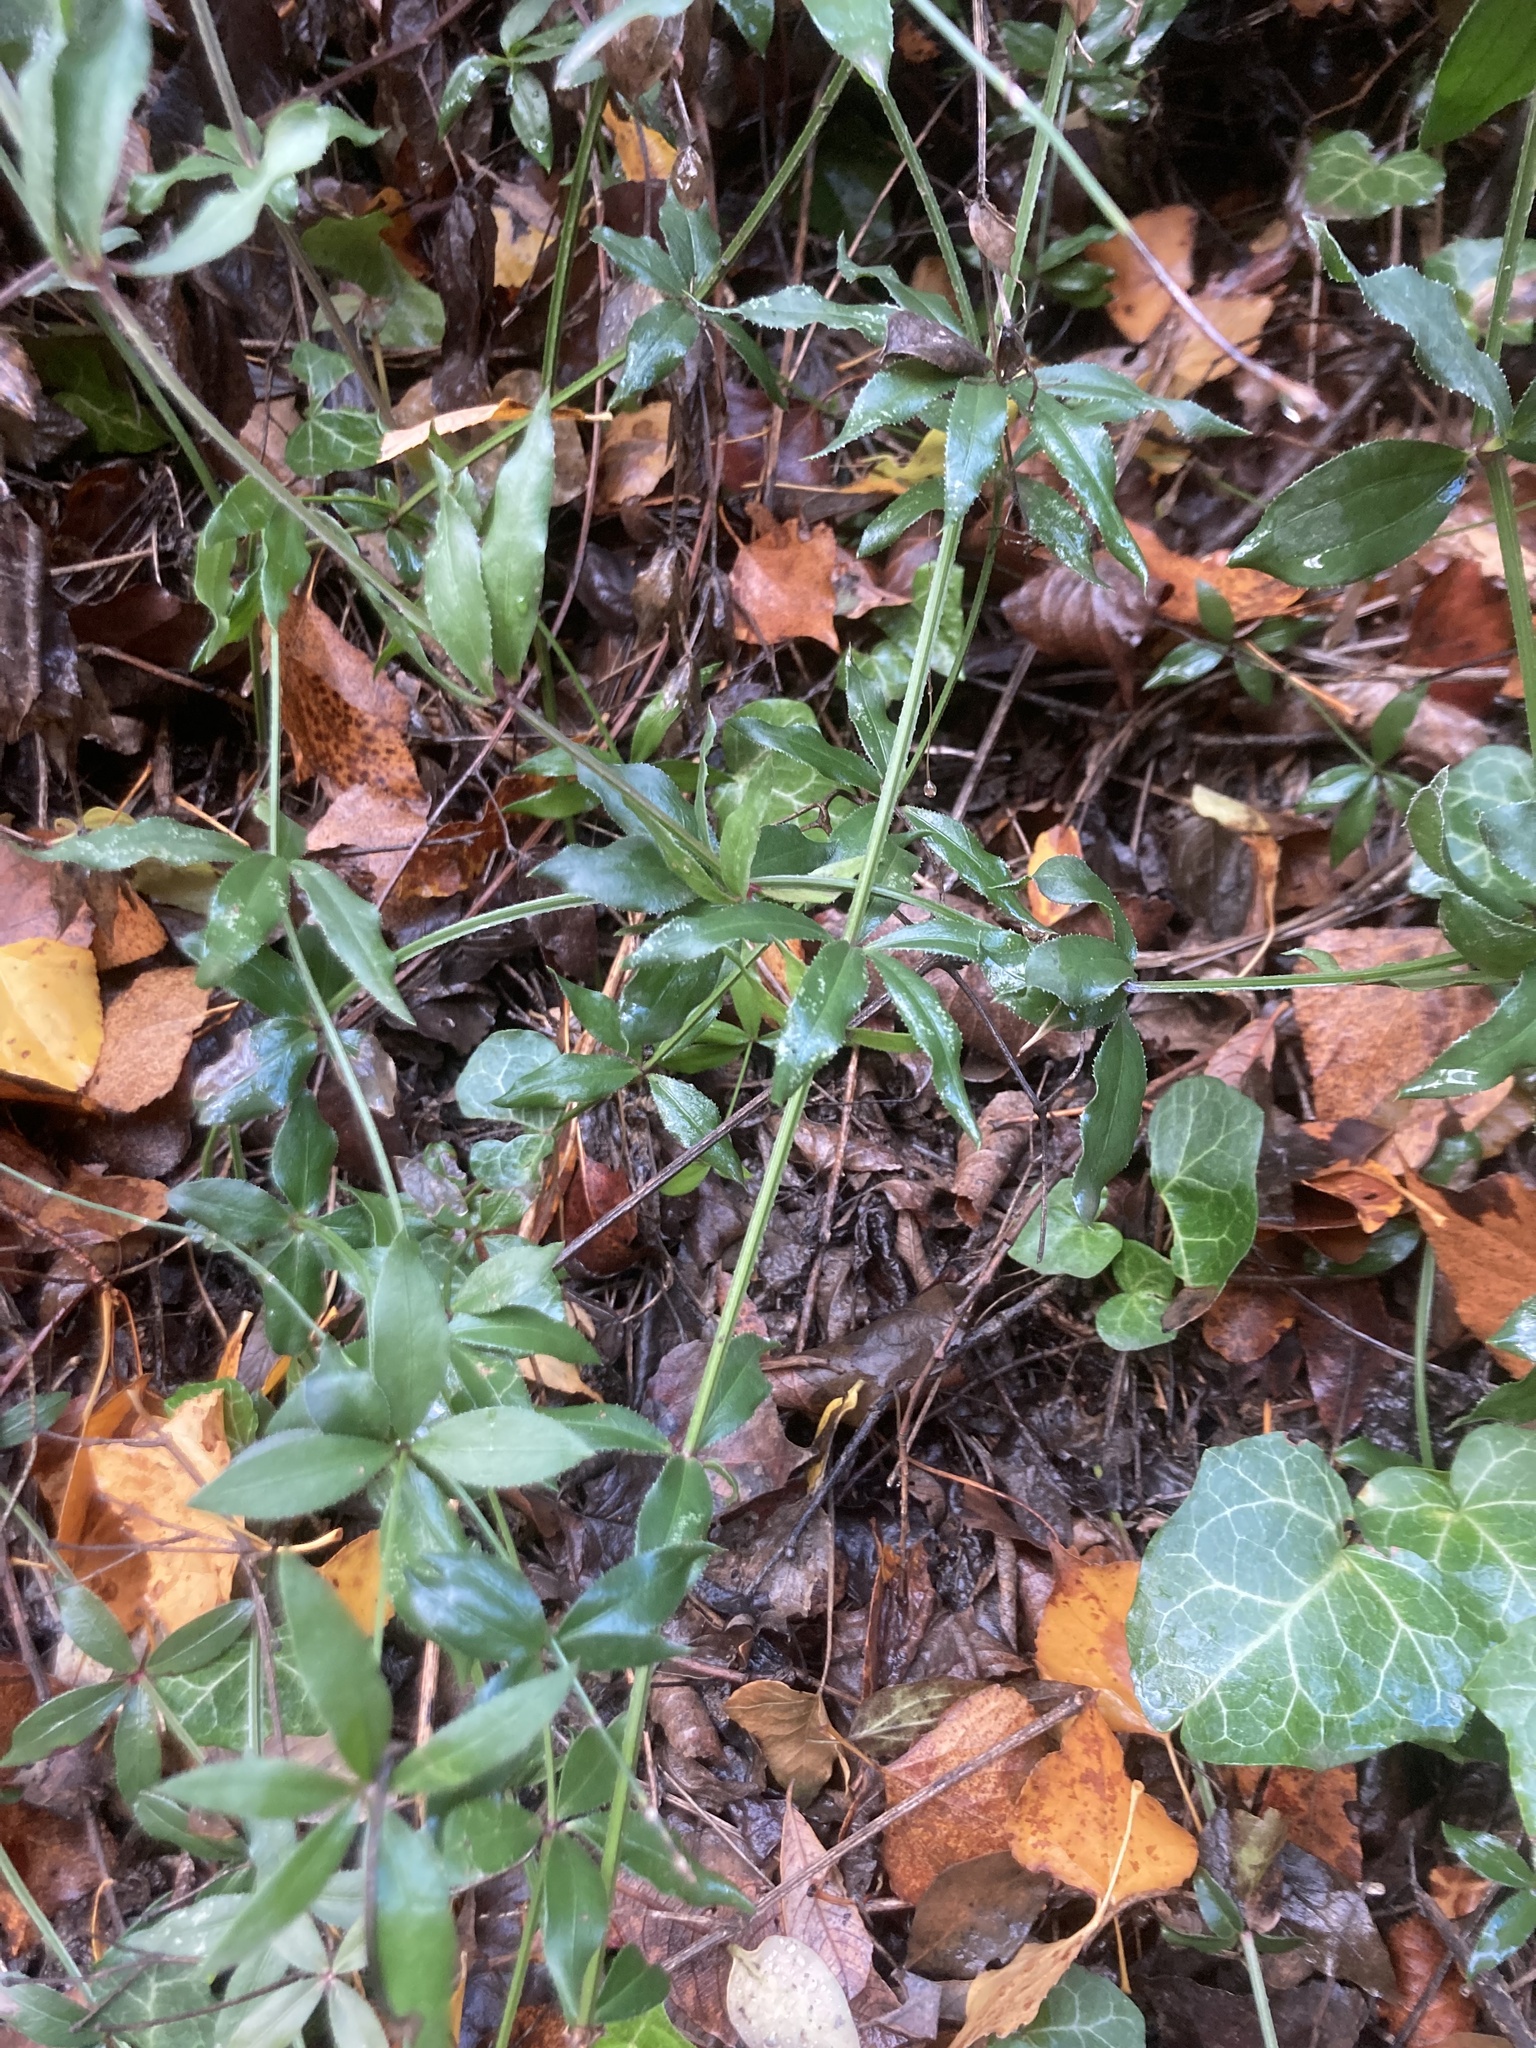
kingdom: Plantae
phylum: Tracheophyta
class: Magnoliopsida
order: Gentianales
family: Rubiaceae
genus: Rubia
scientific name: Rubia peregrina
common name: Wild madder
